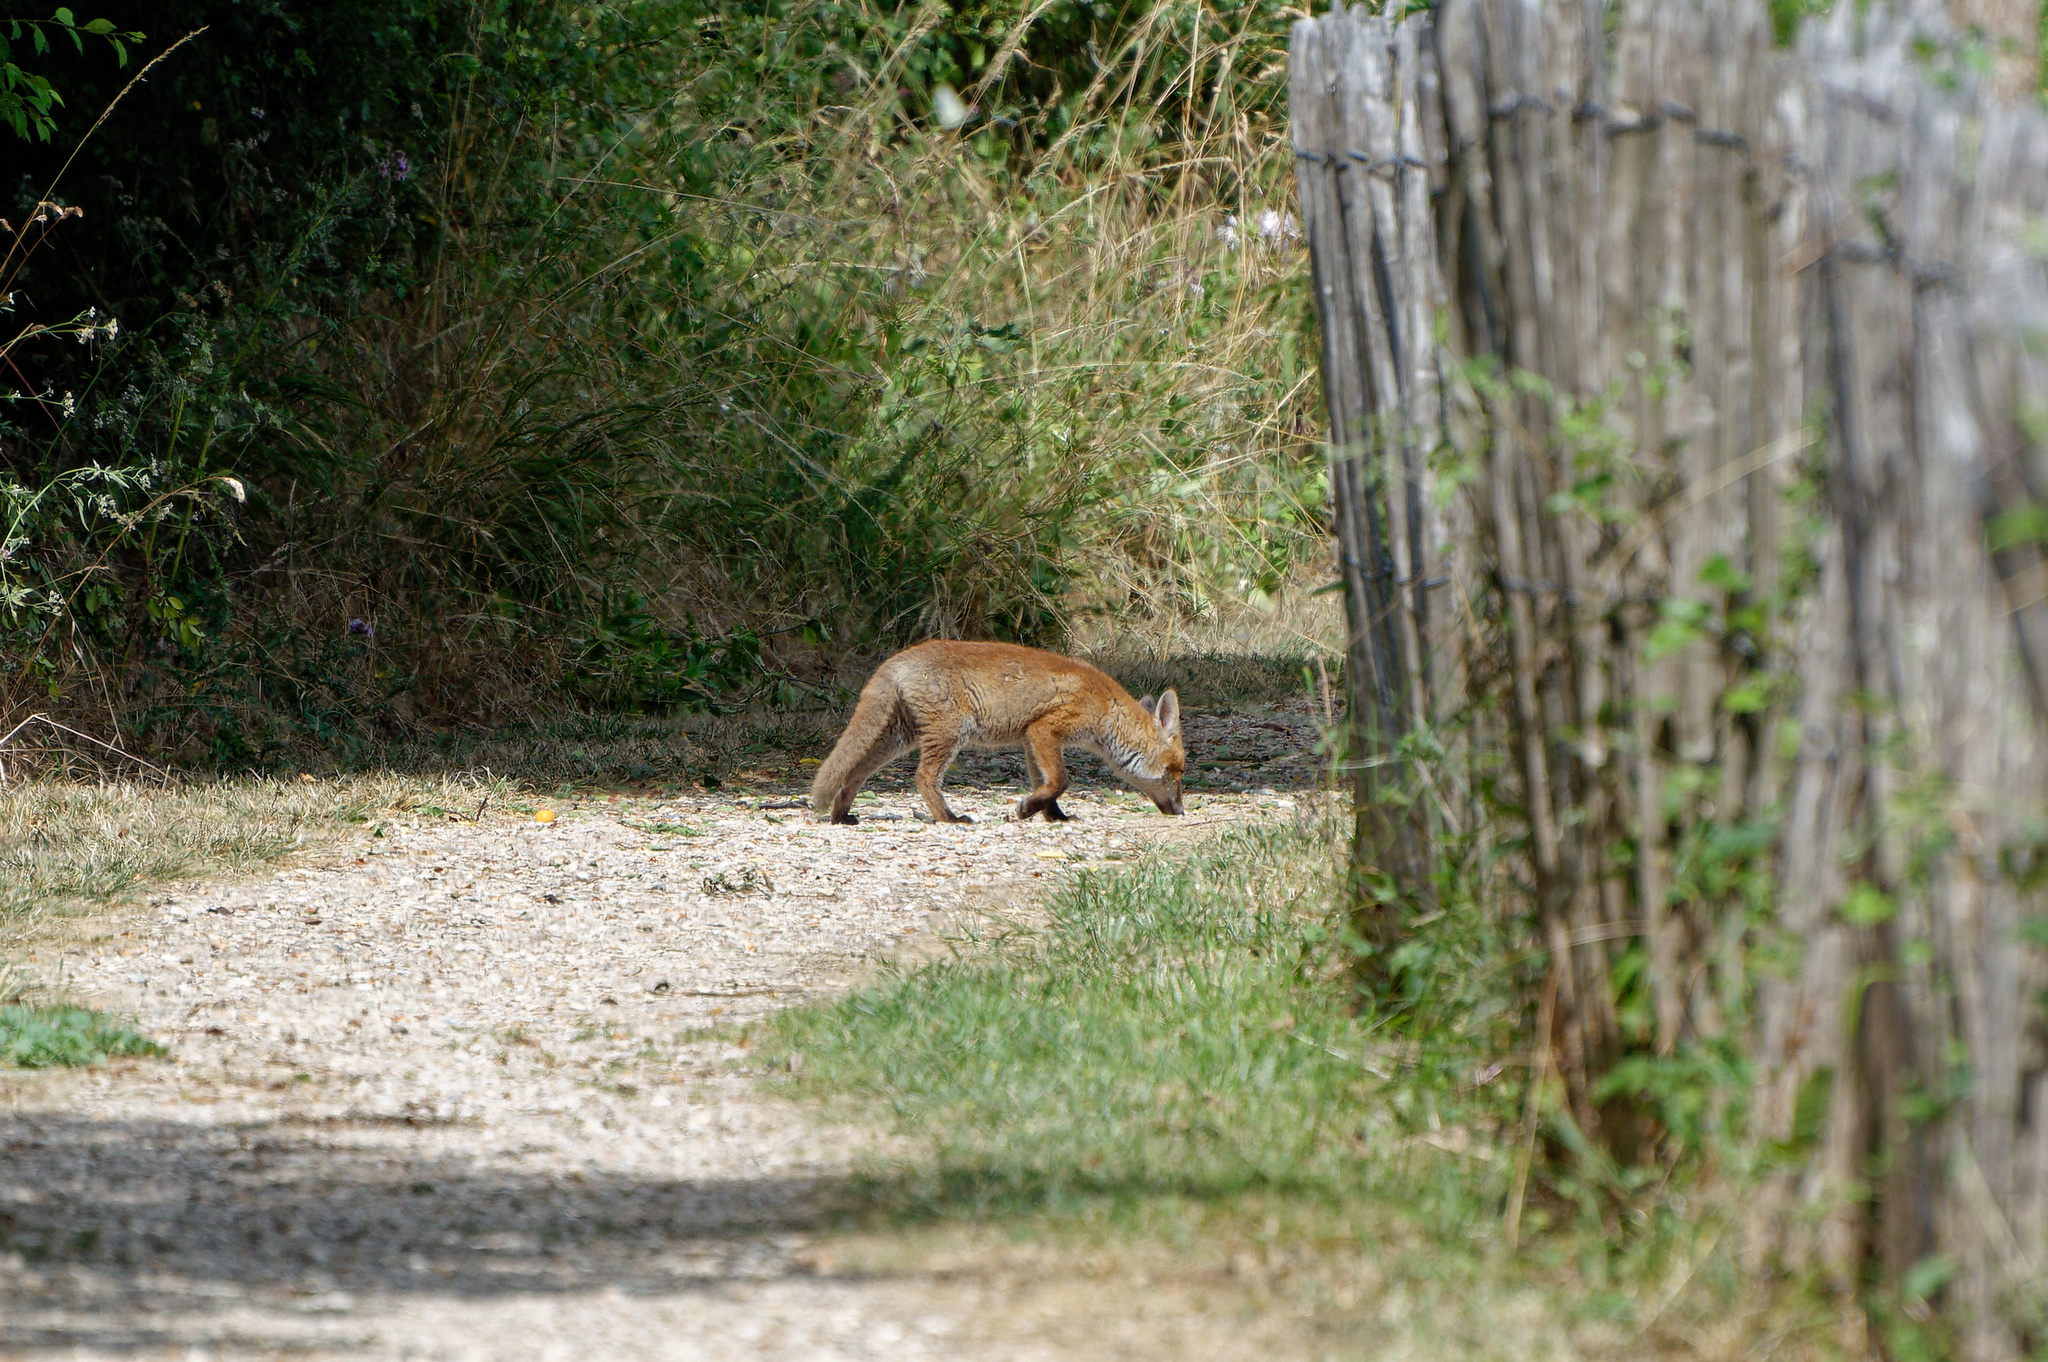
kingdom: Animalia
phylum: Chordata
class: Mammalia
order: Carnivora
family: Canidae
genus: Vulpes
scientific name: Vulpes vulpes
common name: Red fox
